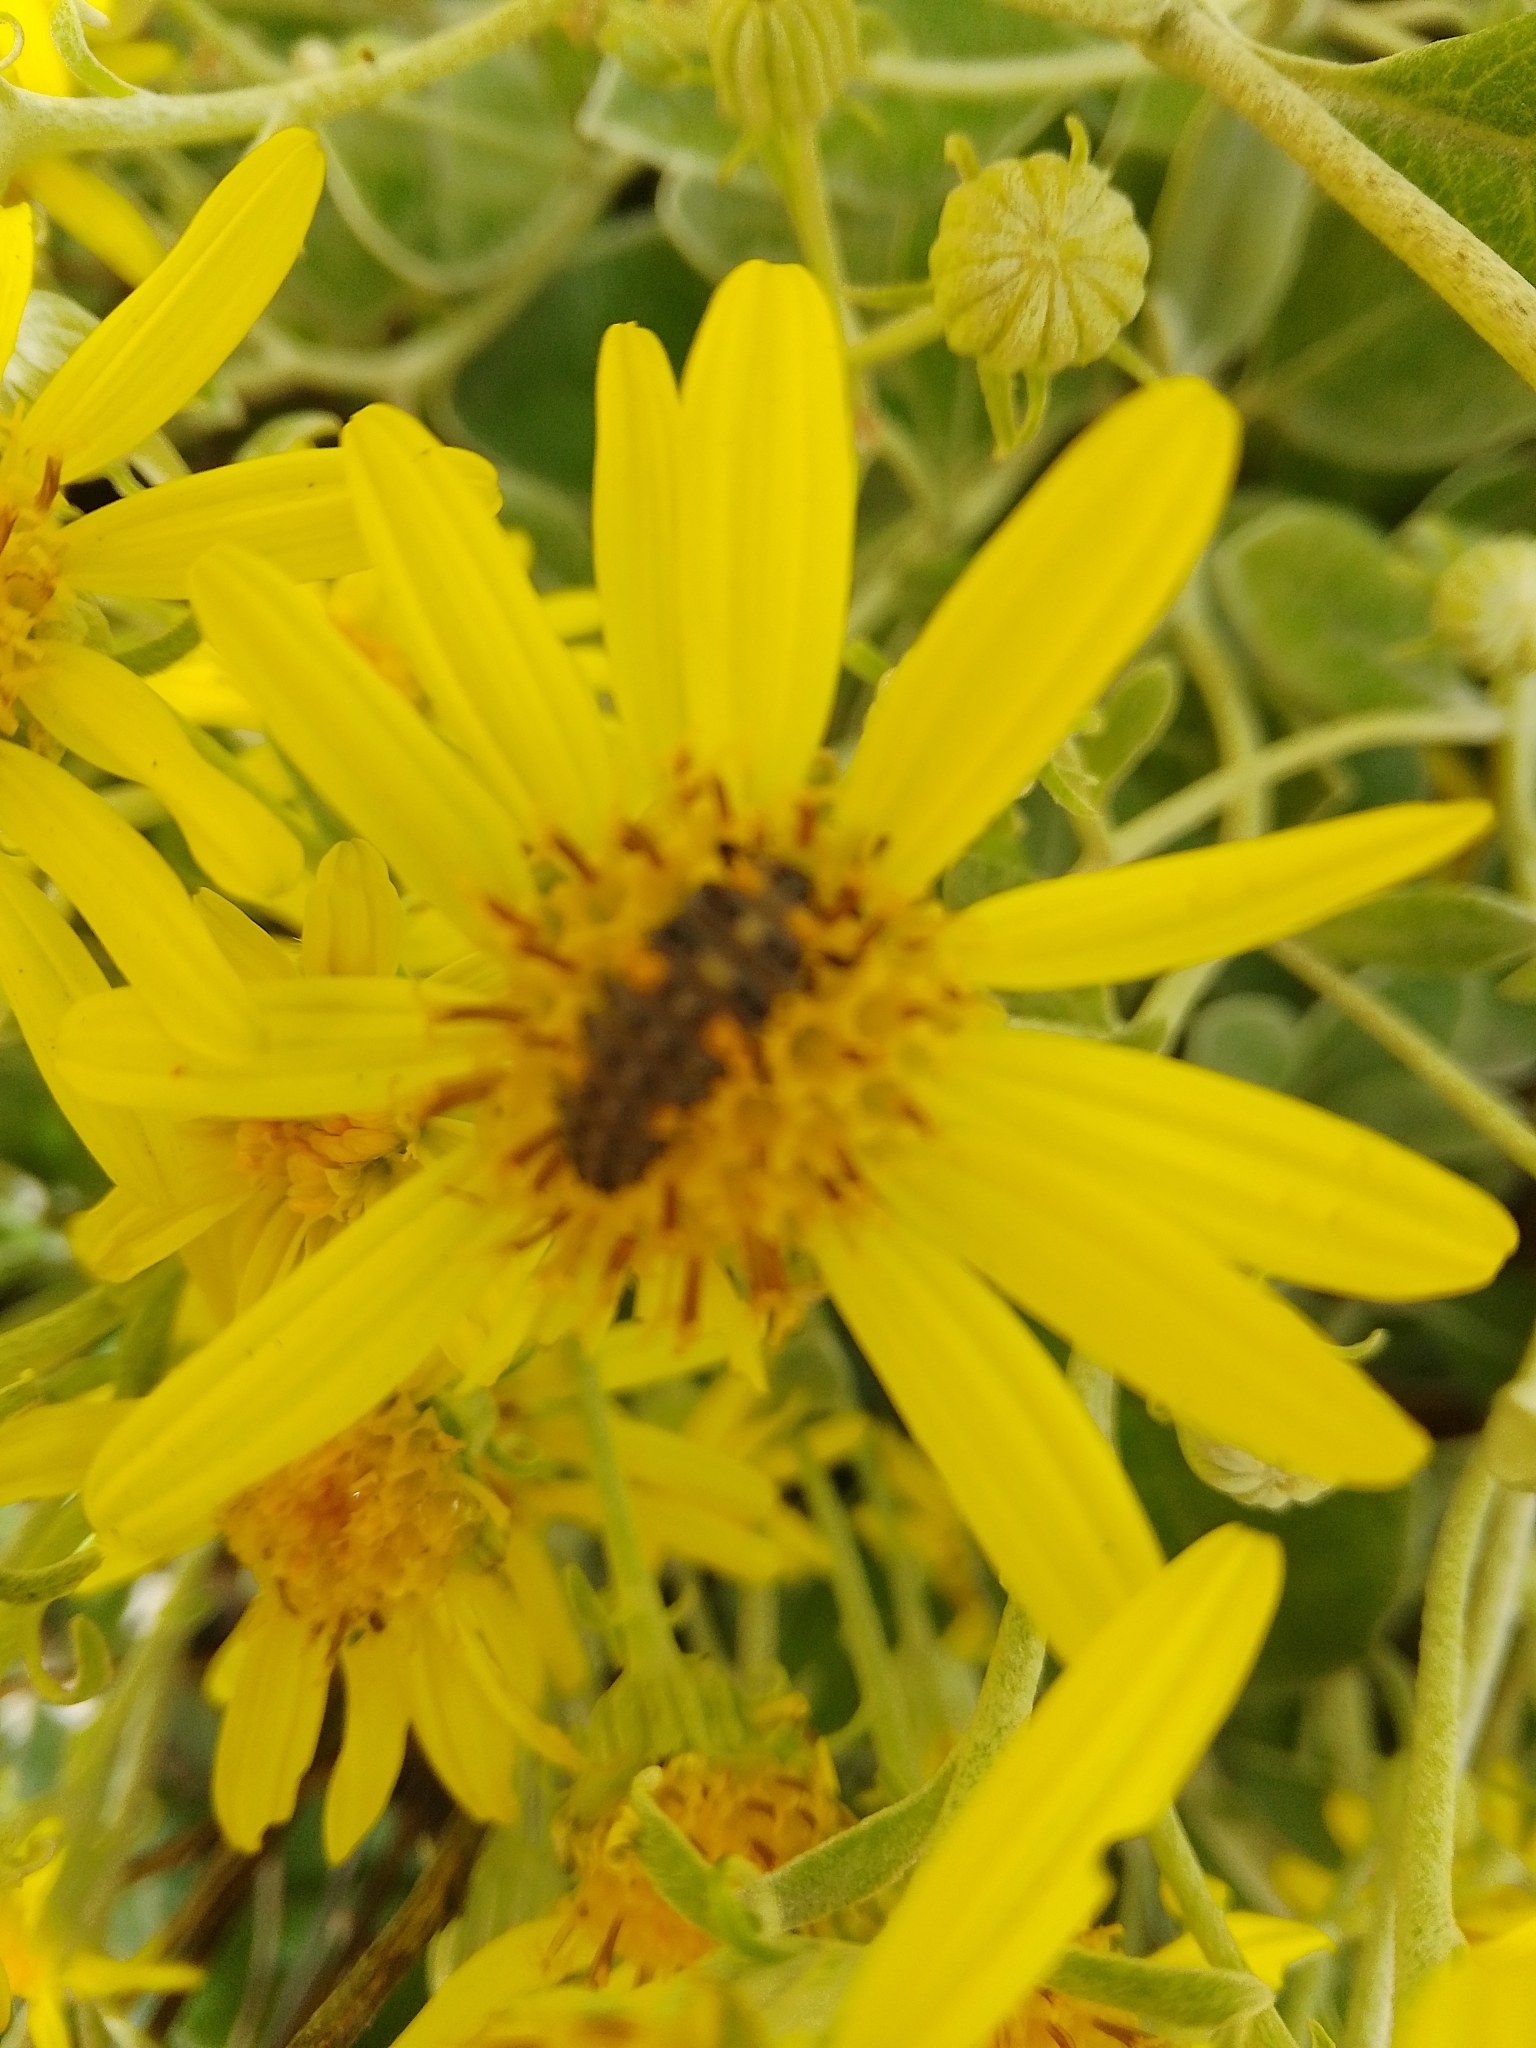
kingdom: Animalia
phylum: Arthropoda
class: Insecta
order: Coleoptera
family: Coccinellidae
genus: Coccinella
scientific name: Coccinella septempunctata
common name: Sevenspotted lady beetle
